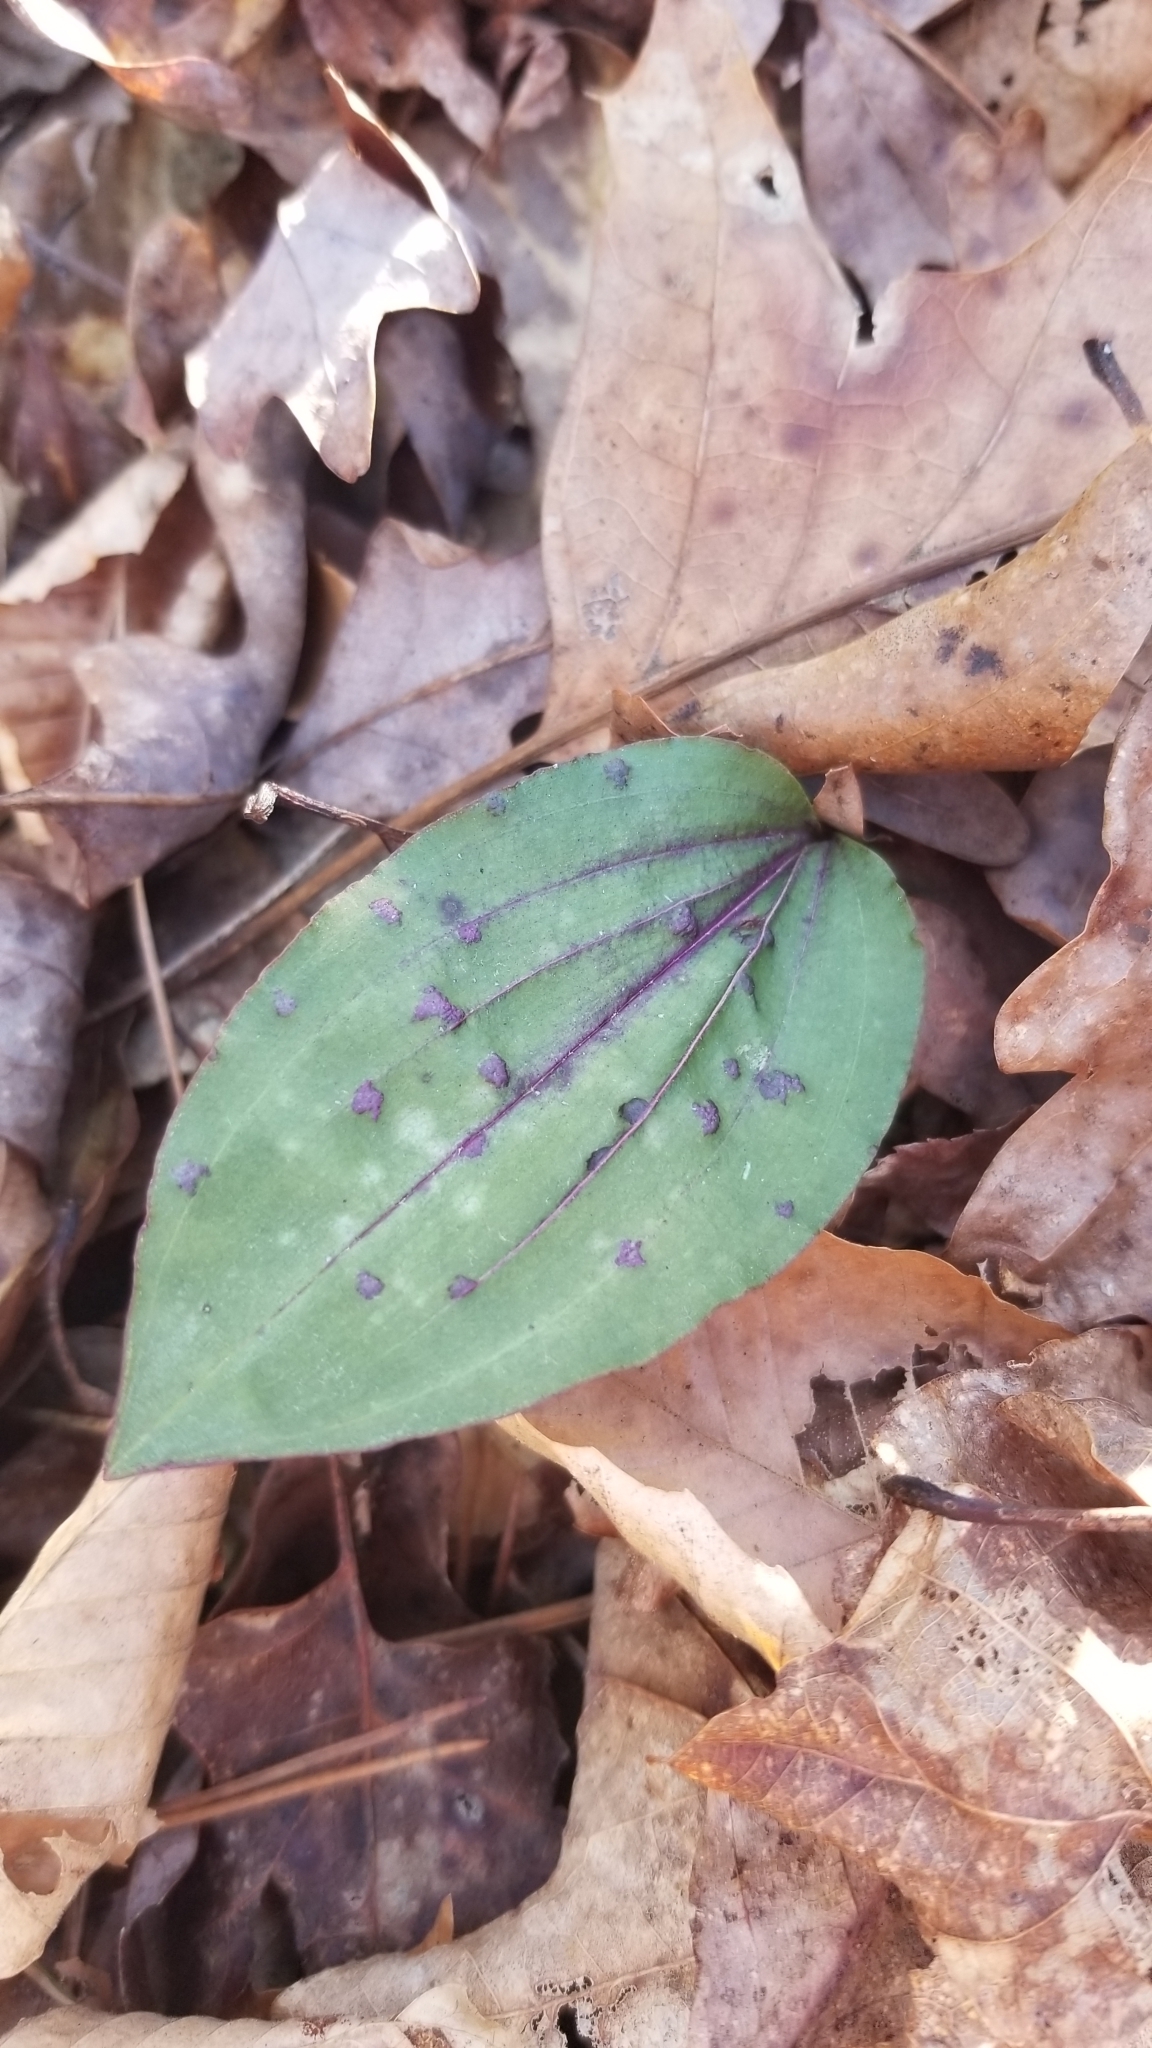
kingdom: Plantae
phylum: Tracheophyta
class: Liliopsida
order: Asparagales
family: Orchidaceae
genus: Tipularia
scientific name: Tipularia discolor
